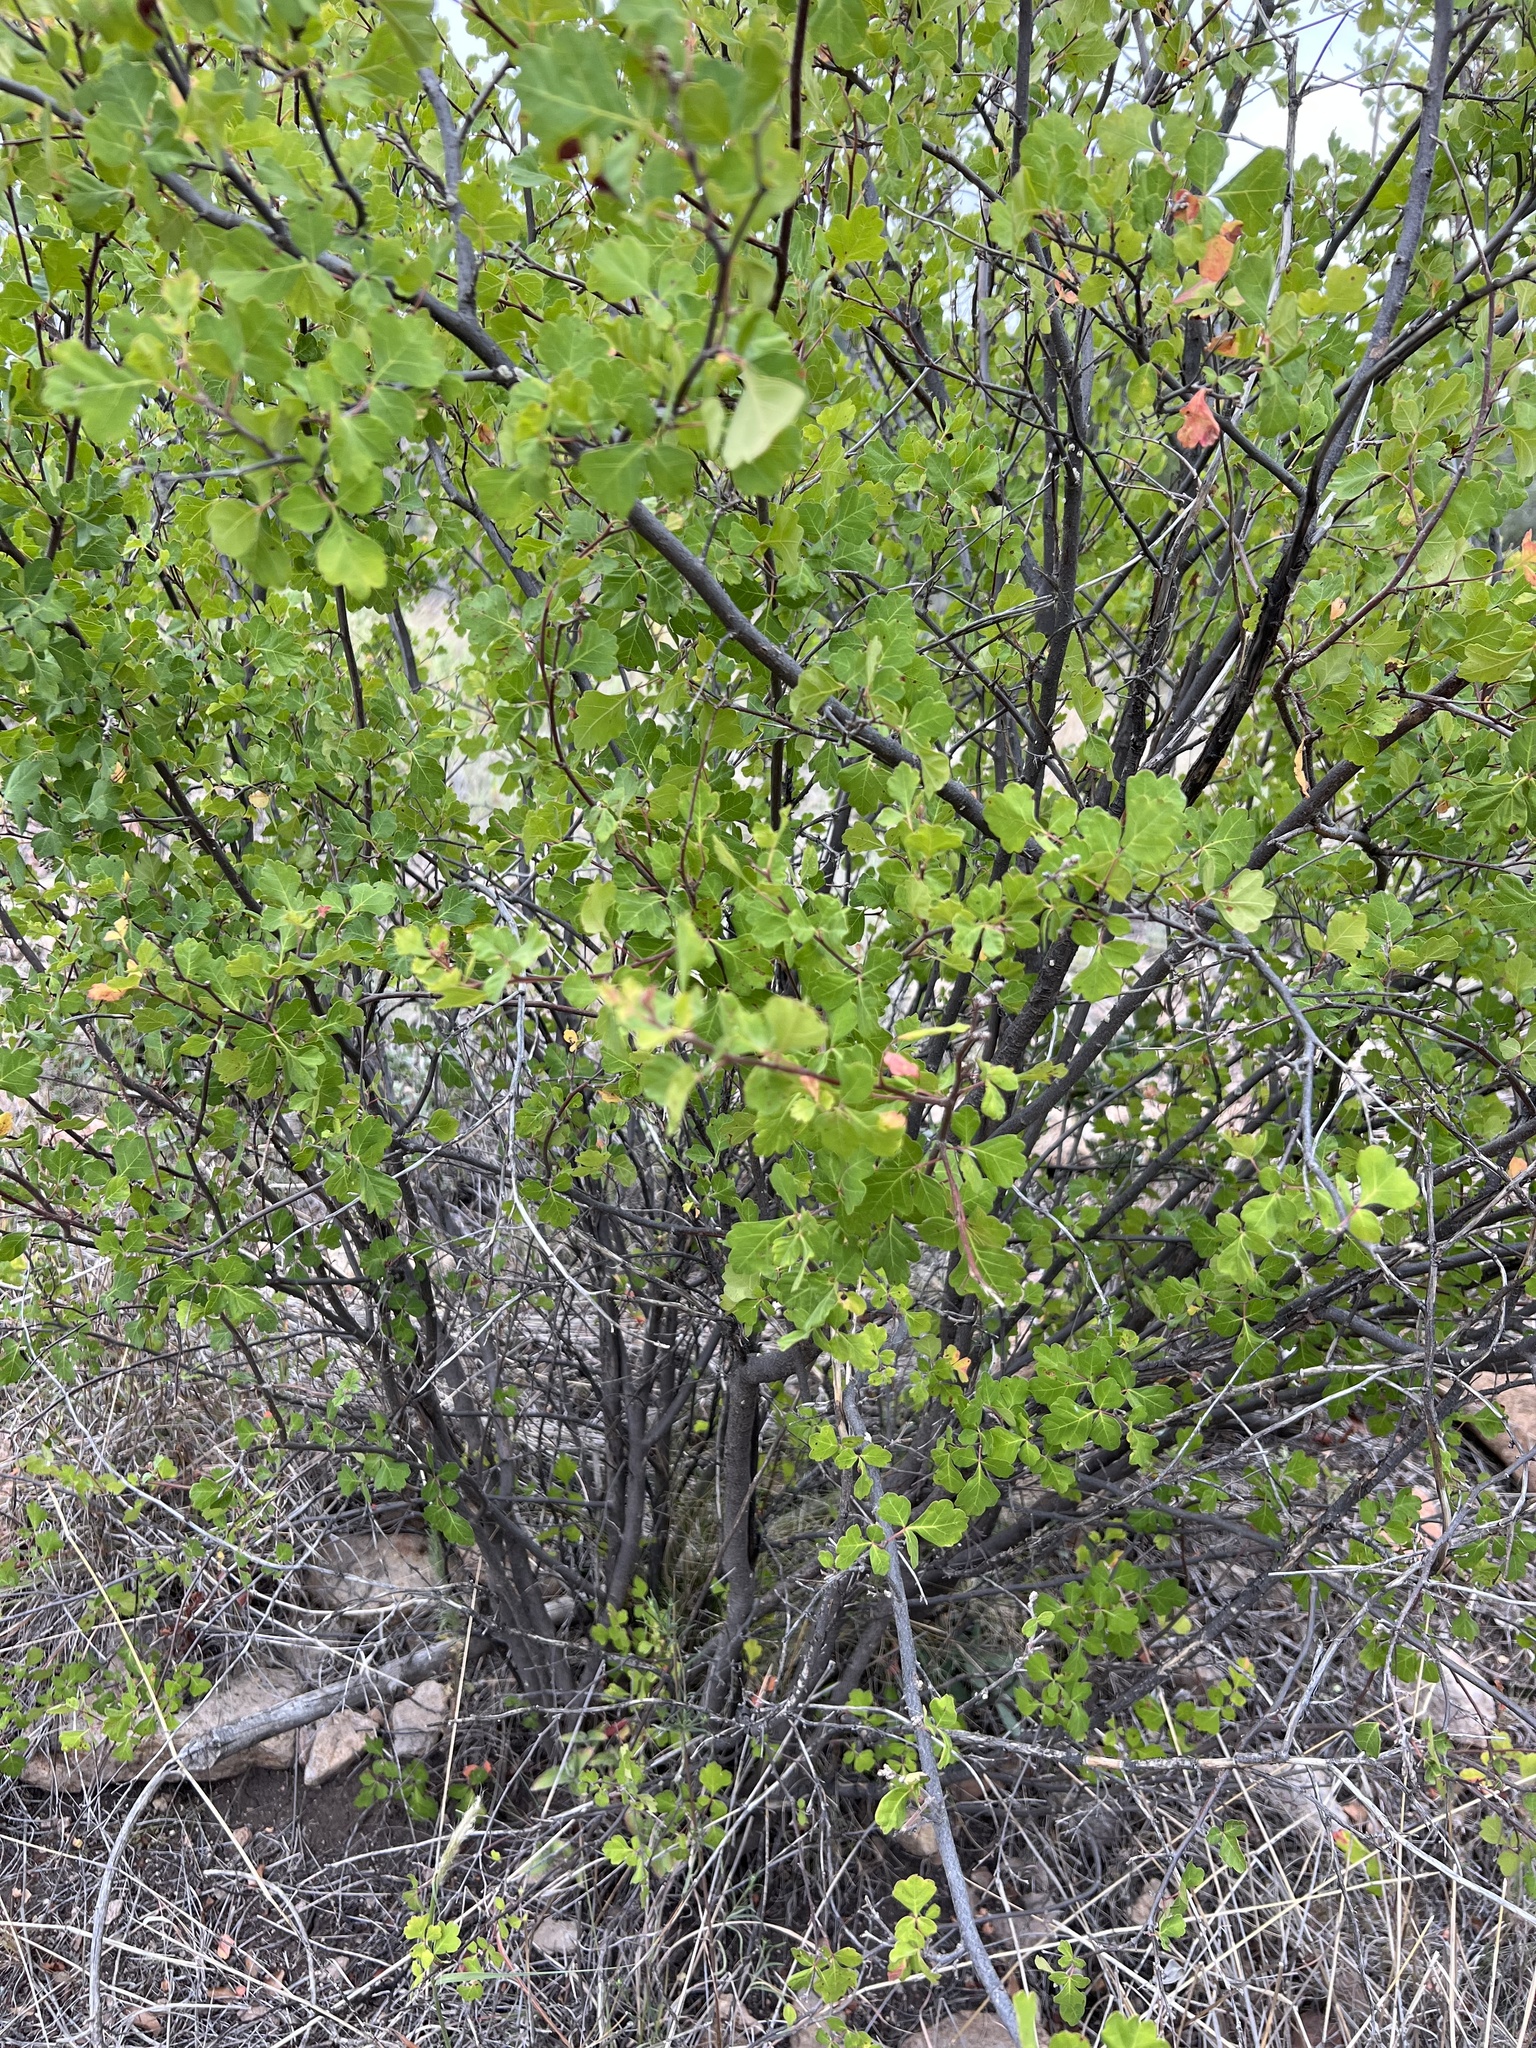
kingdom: Plantae
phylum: Tracheophyta
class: Magnoliopsida
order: Sapindales
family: Anacardiaceae
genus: Rhus
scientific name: Rhus trilobata
